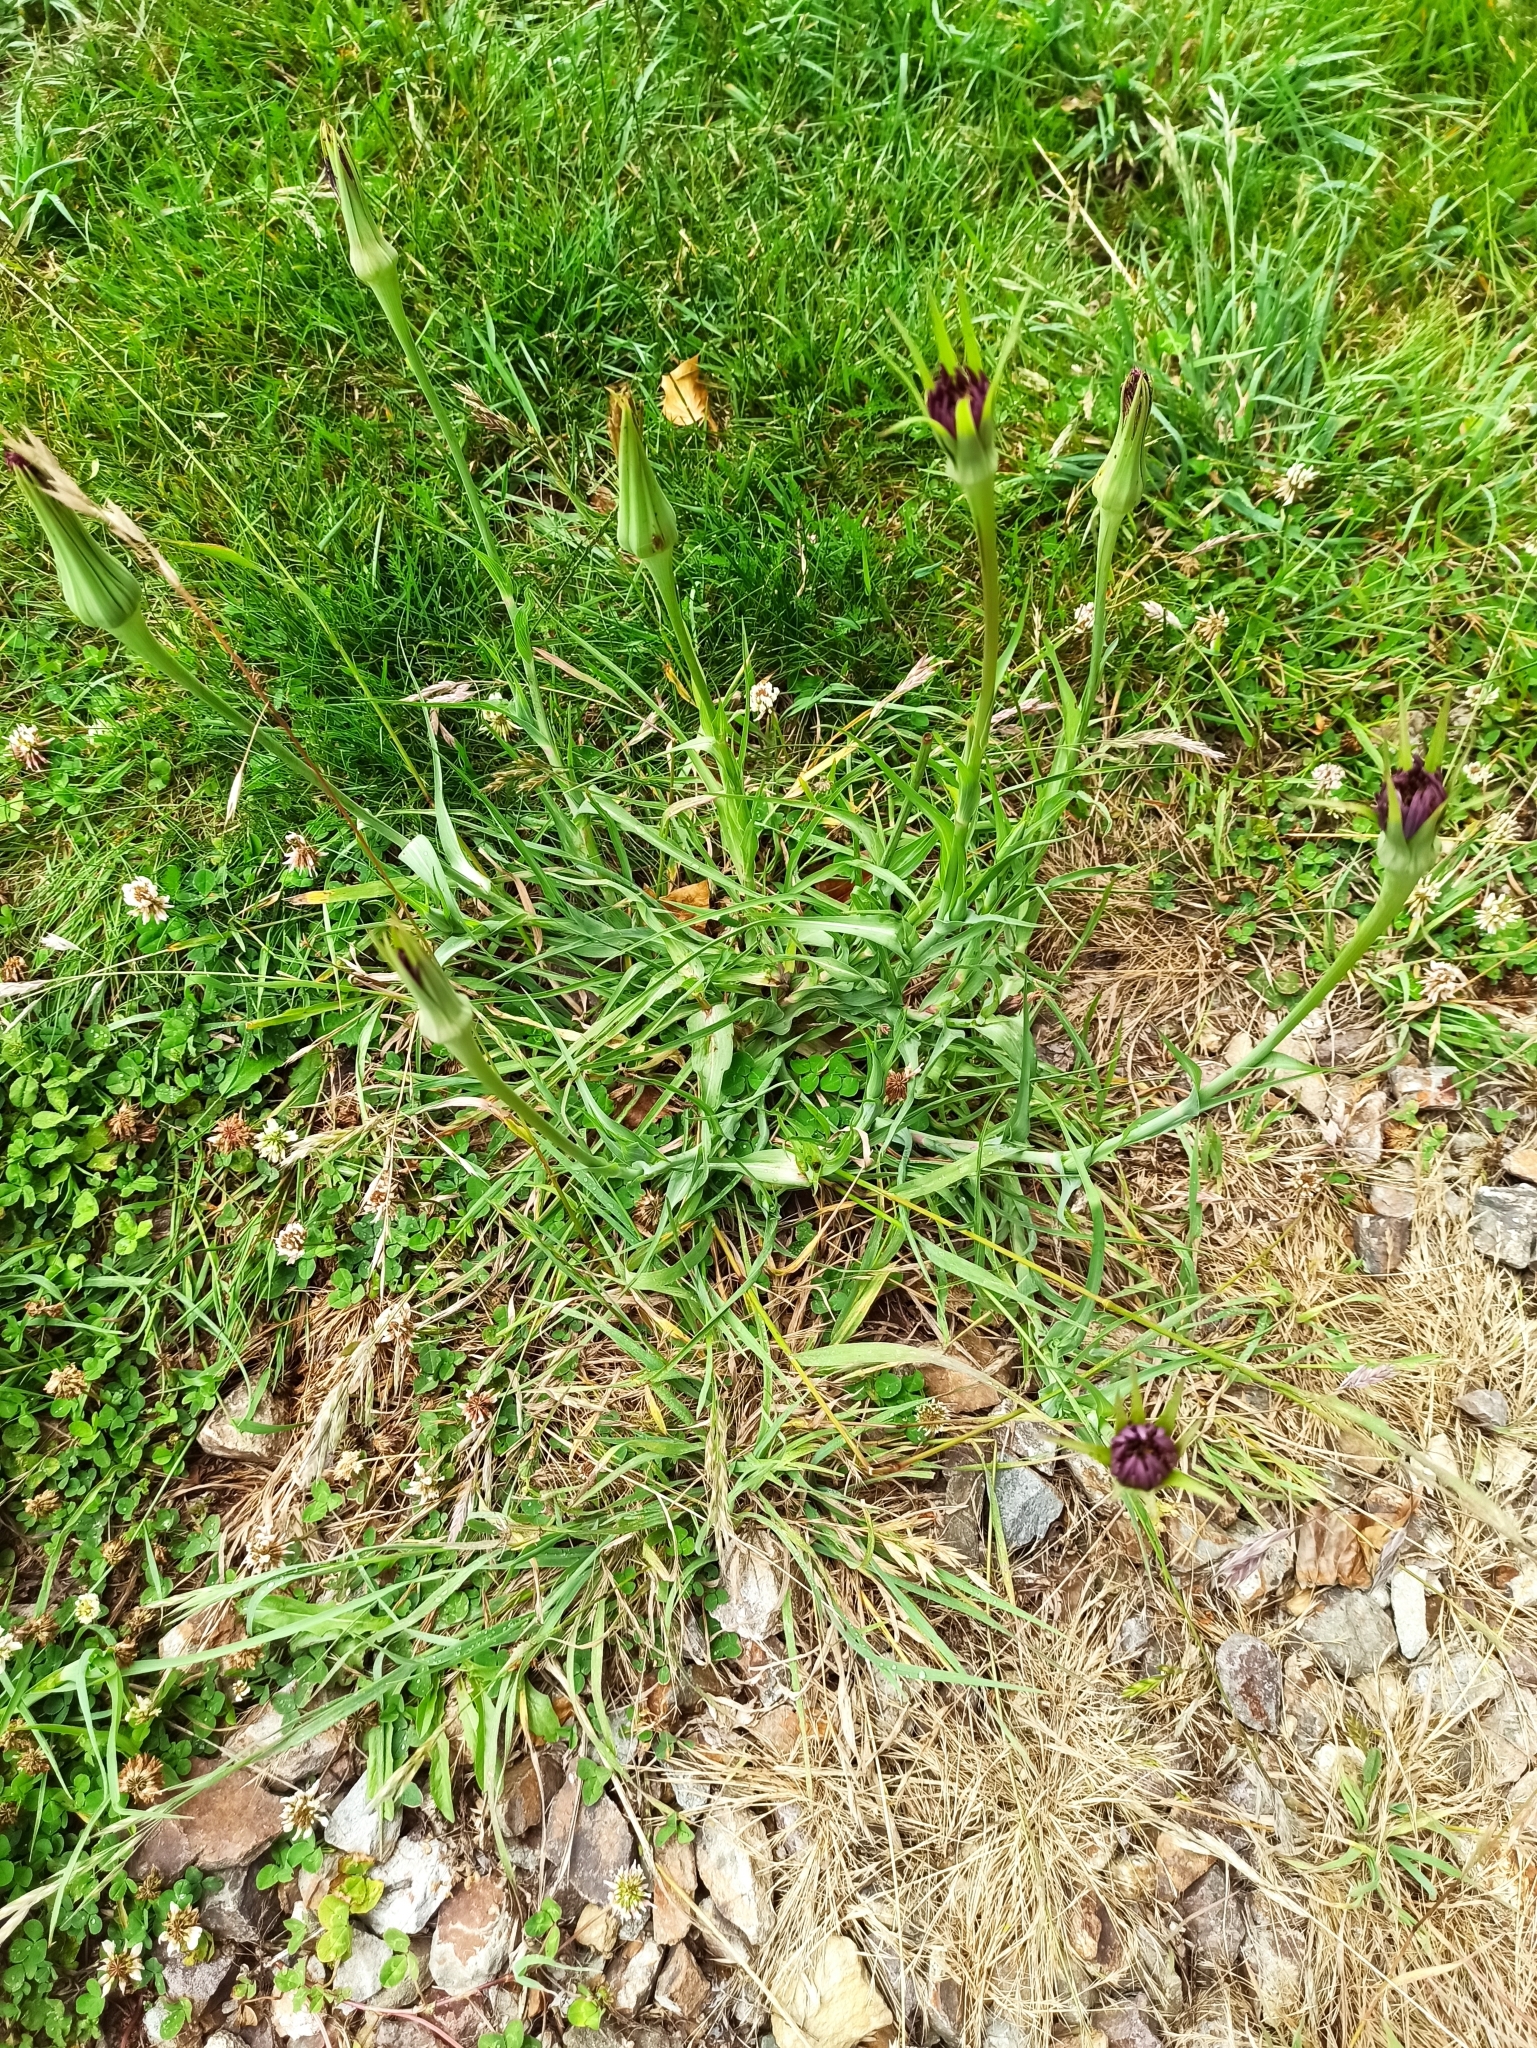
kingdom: Plantae
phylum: Tracheophyta
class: Magnoliopsida
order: Asterales
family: Asteraceae
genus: Tragopogon
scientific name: Tragopogon porrifolius
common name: Salsify
